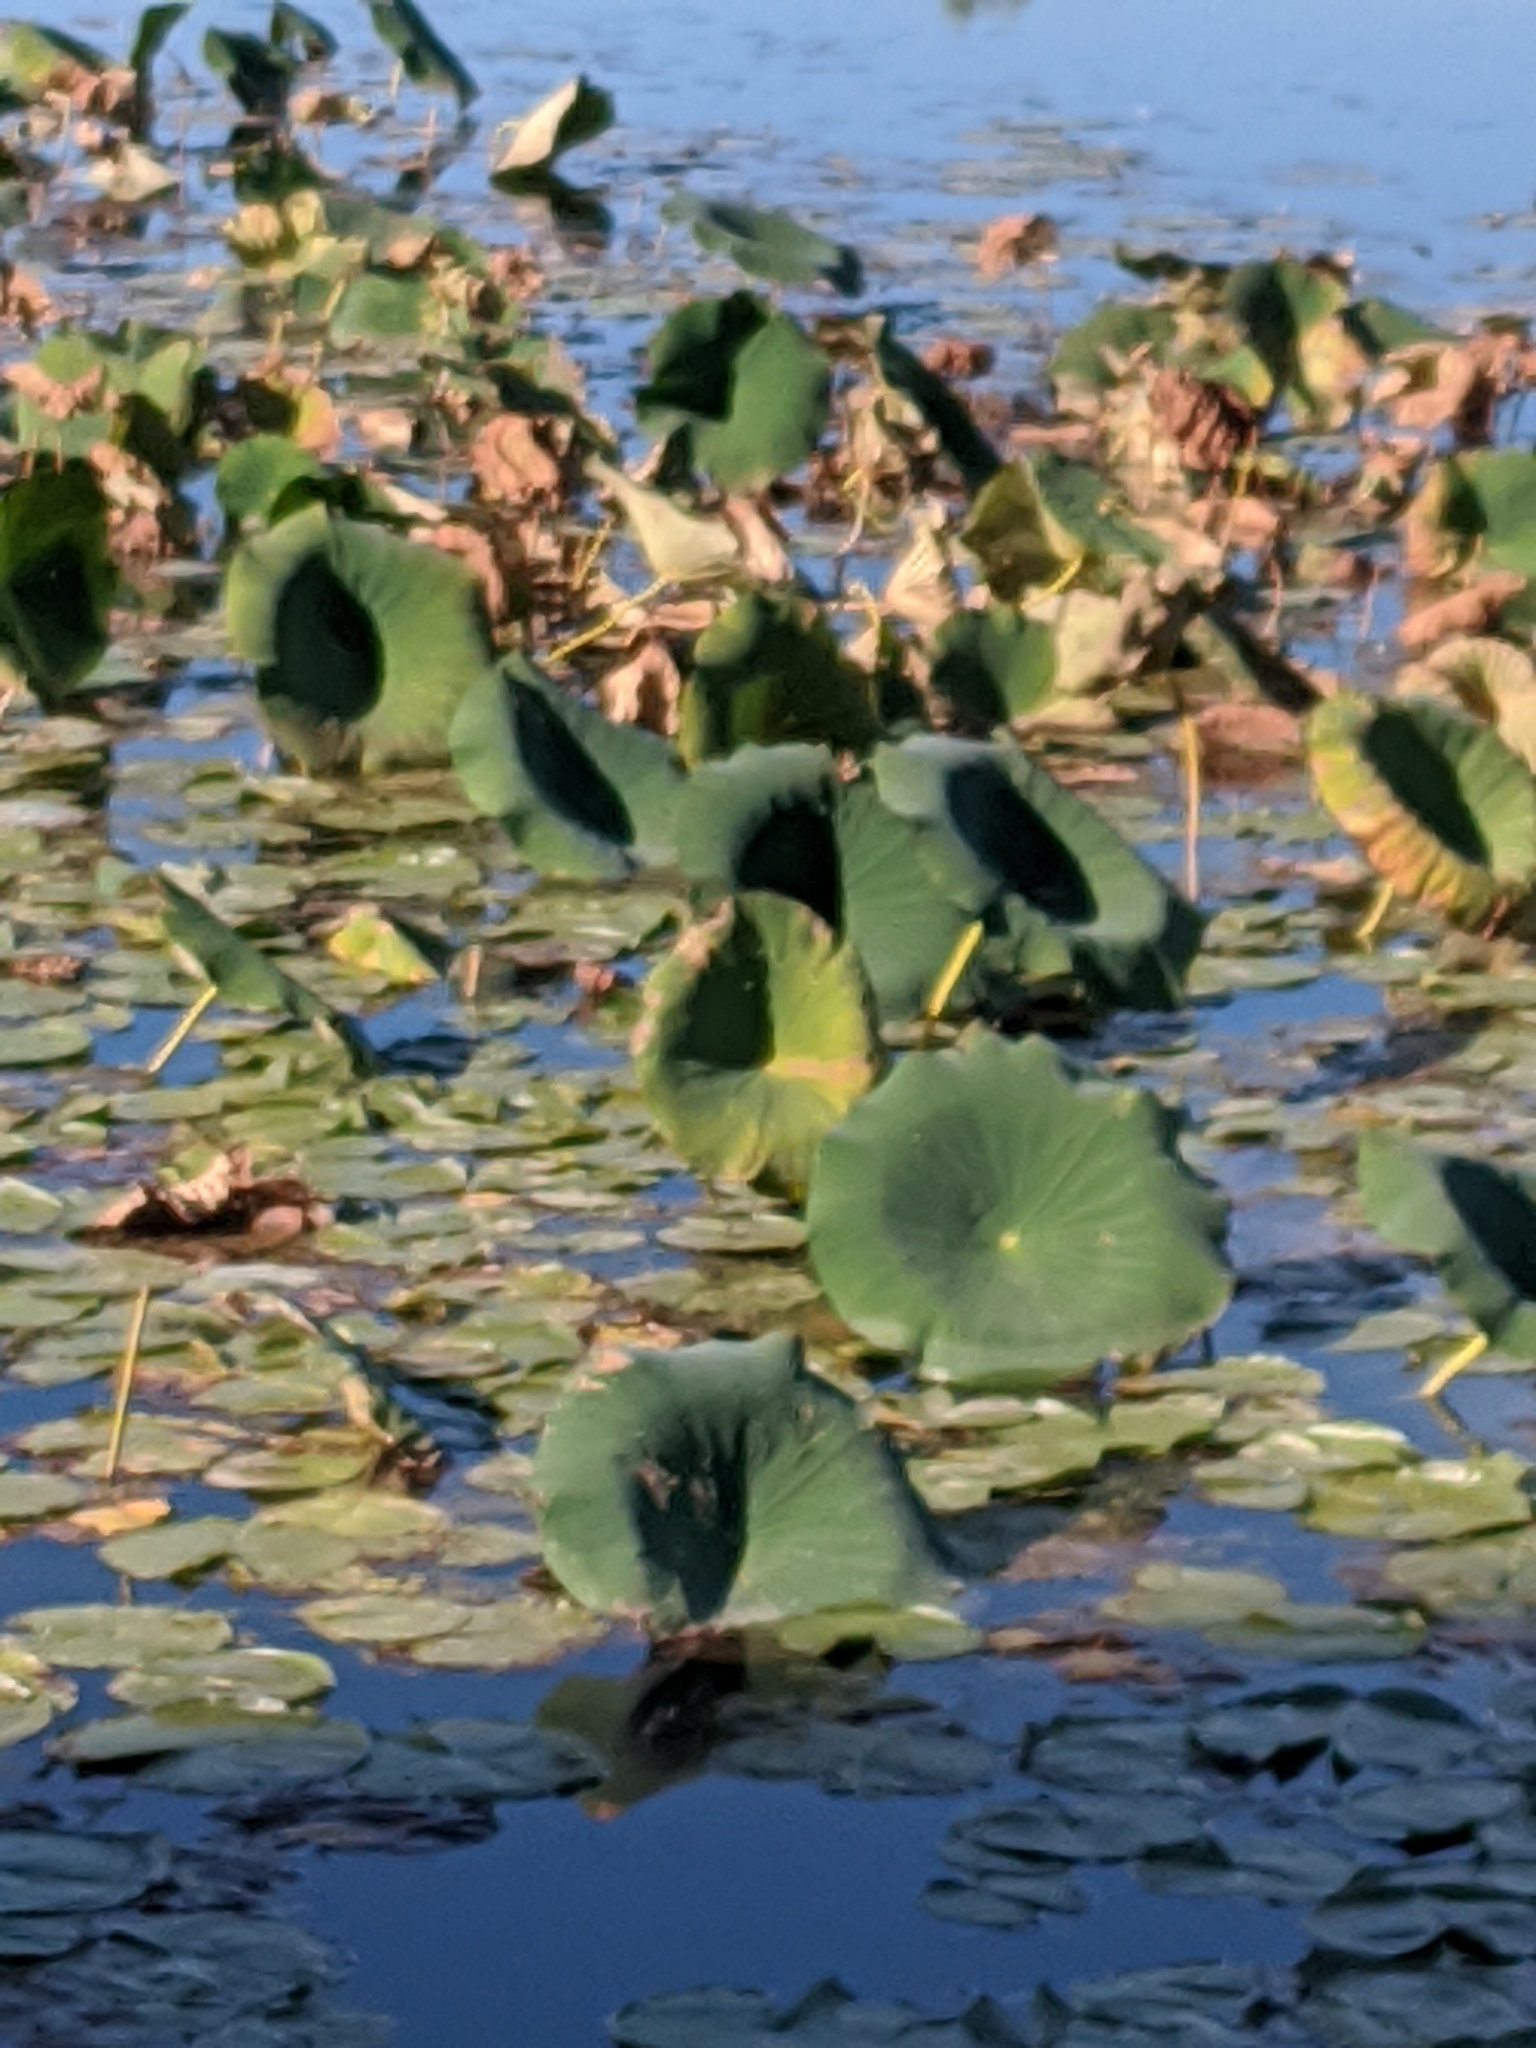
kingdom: Plantae
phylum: Tracheophyta
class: Magnoliopsida
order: Proteales
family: Nelumbonaceae
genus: Nelumbo
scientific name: Nelumbo lutea
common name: American lotus
